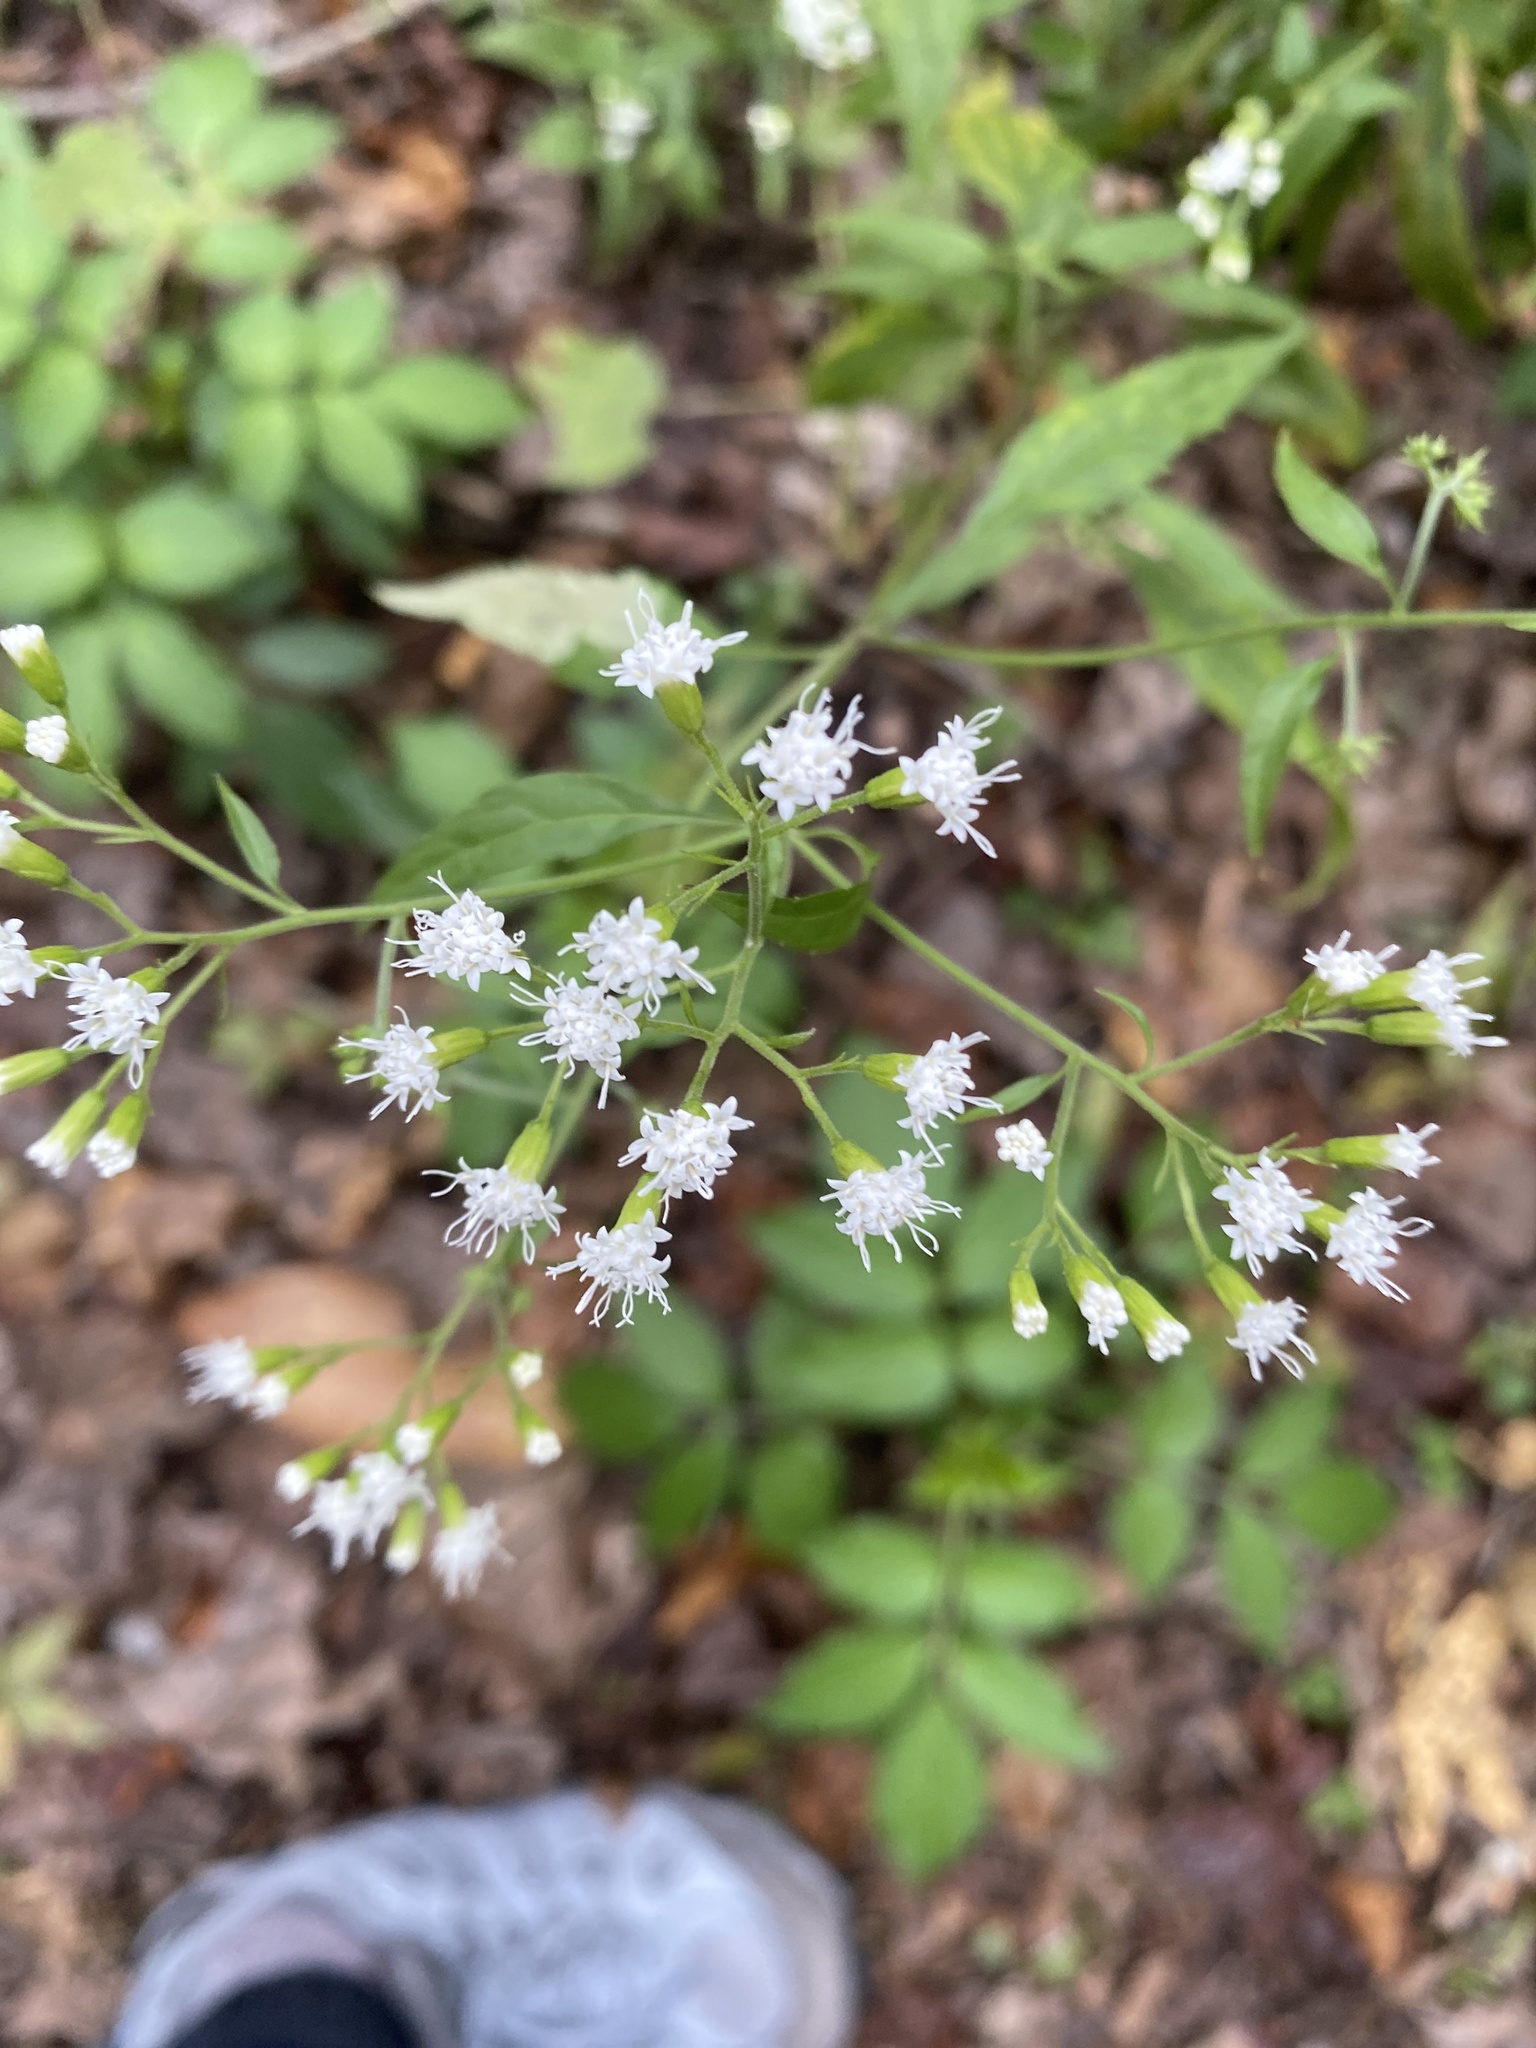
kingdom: Plantae
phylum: Tracheophyta
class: Magnoliopsida
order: Asterales
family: Asteraceae
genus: Ageratina
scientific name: Ageratina altissima
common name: White snakeroot
